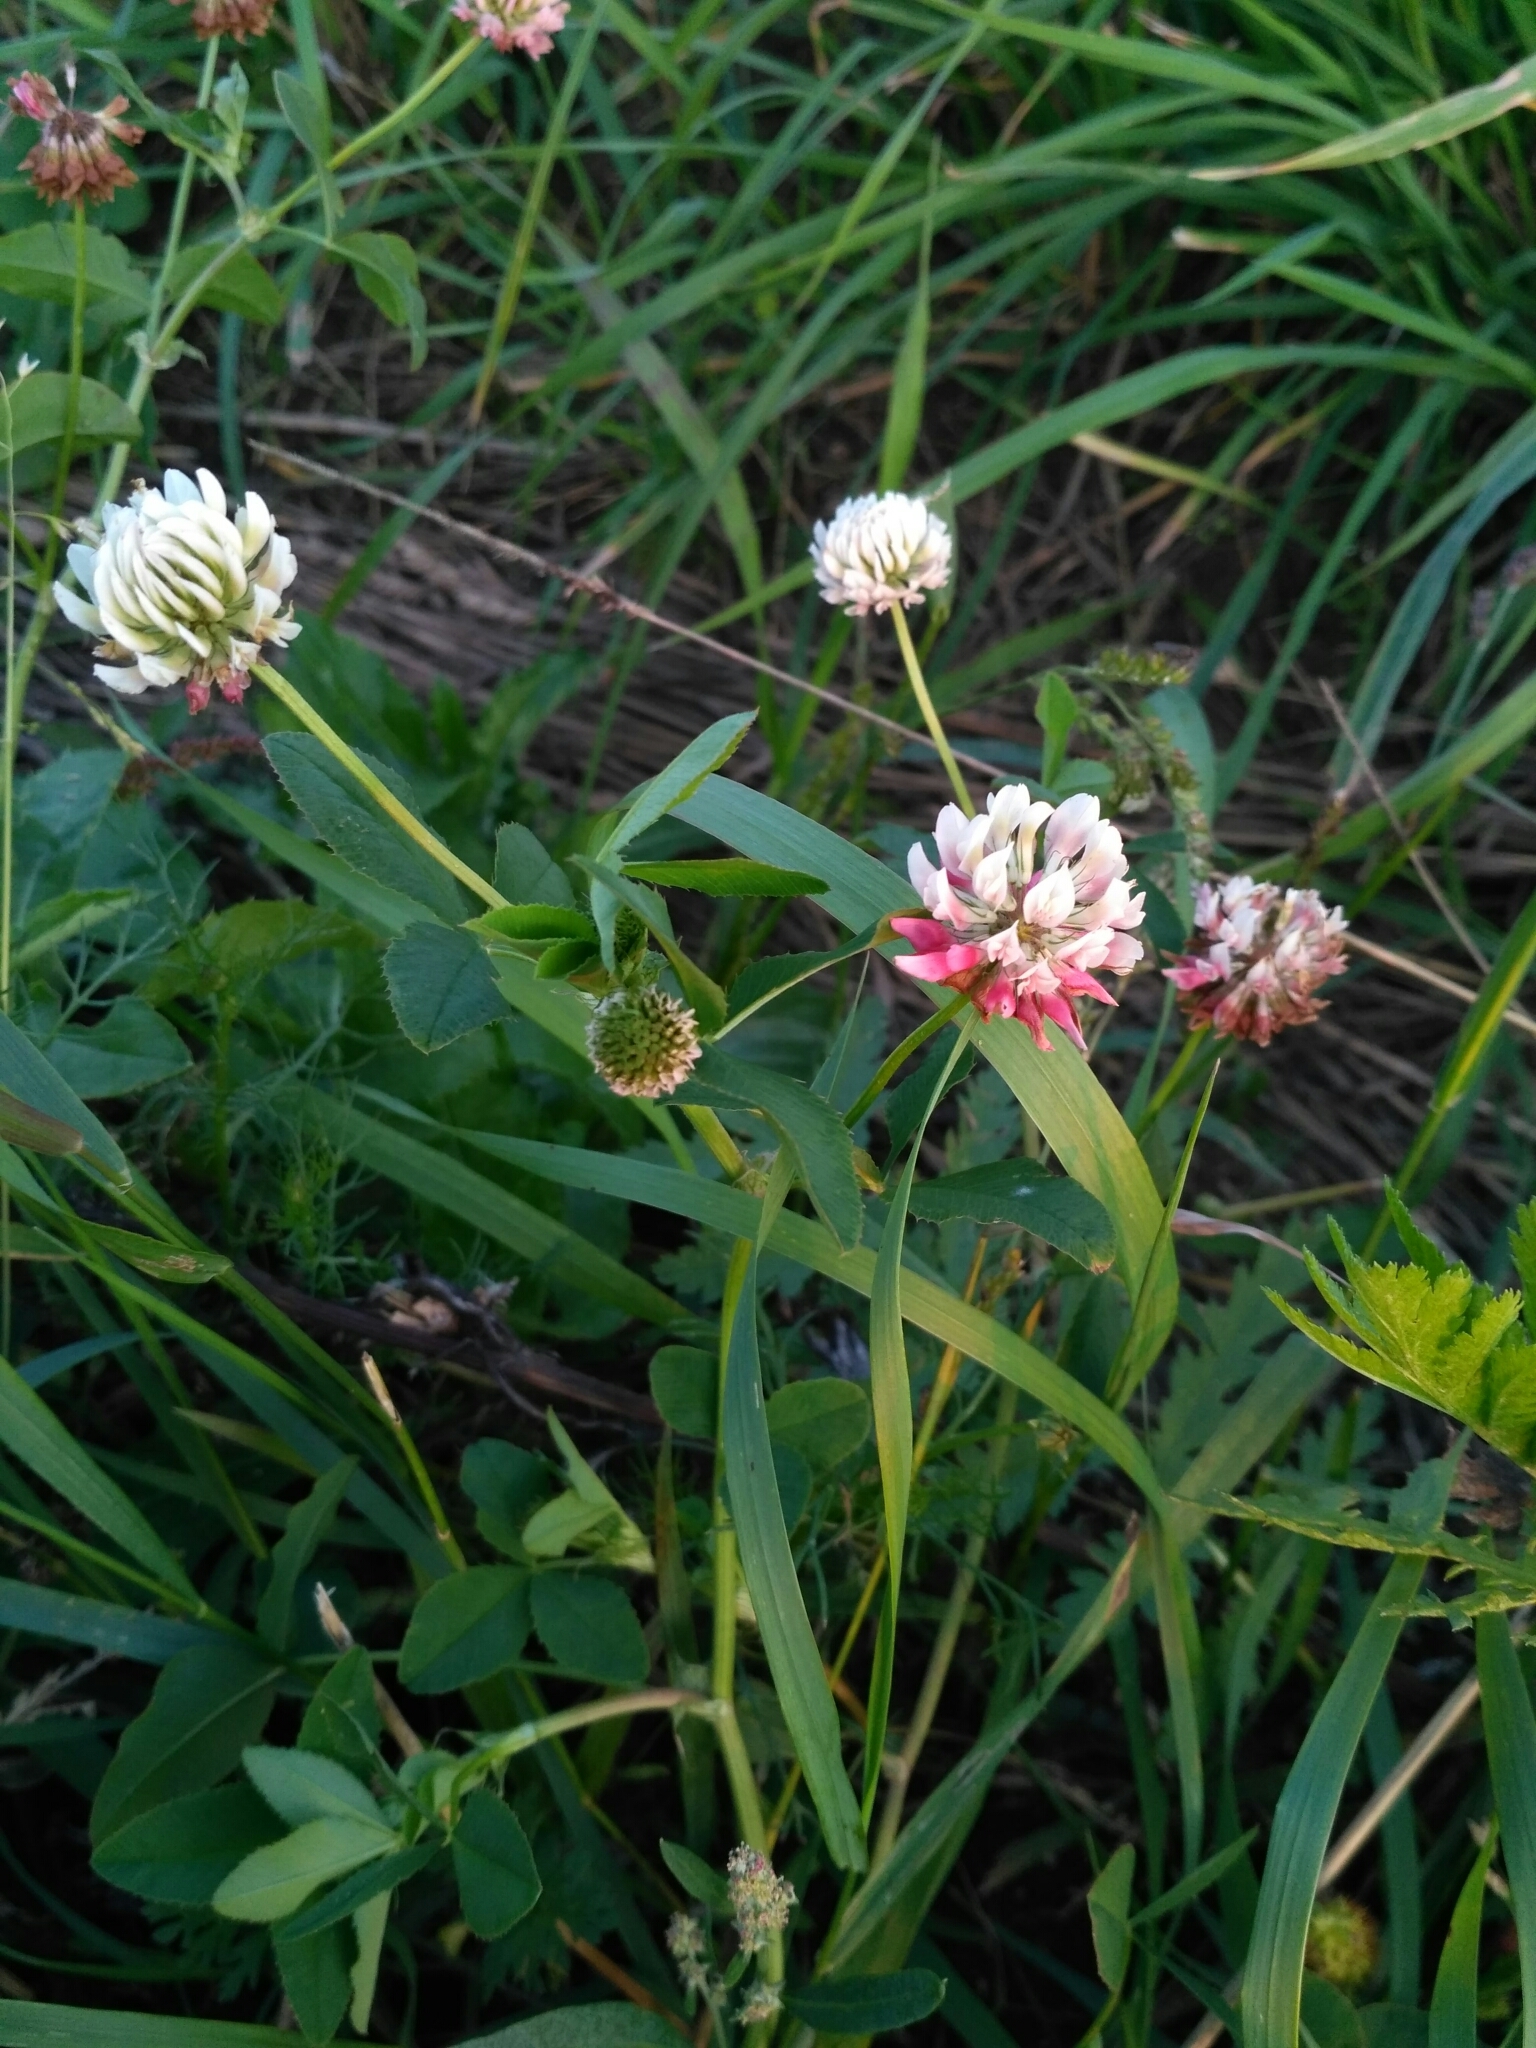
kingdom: Plantae
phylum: Tracheophyta
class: Magnoliopsida
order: Fabales
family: Fabaceae
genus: Trifolium
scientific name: Trifolium hybridum
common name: Alsike clover
